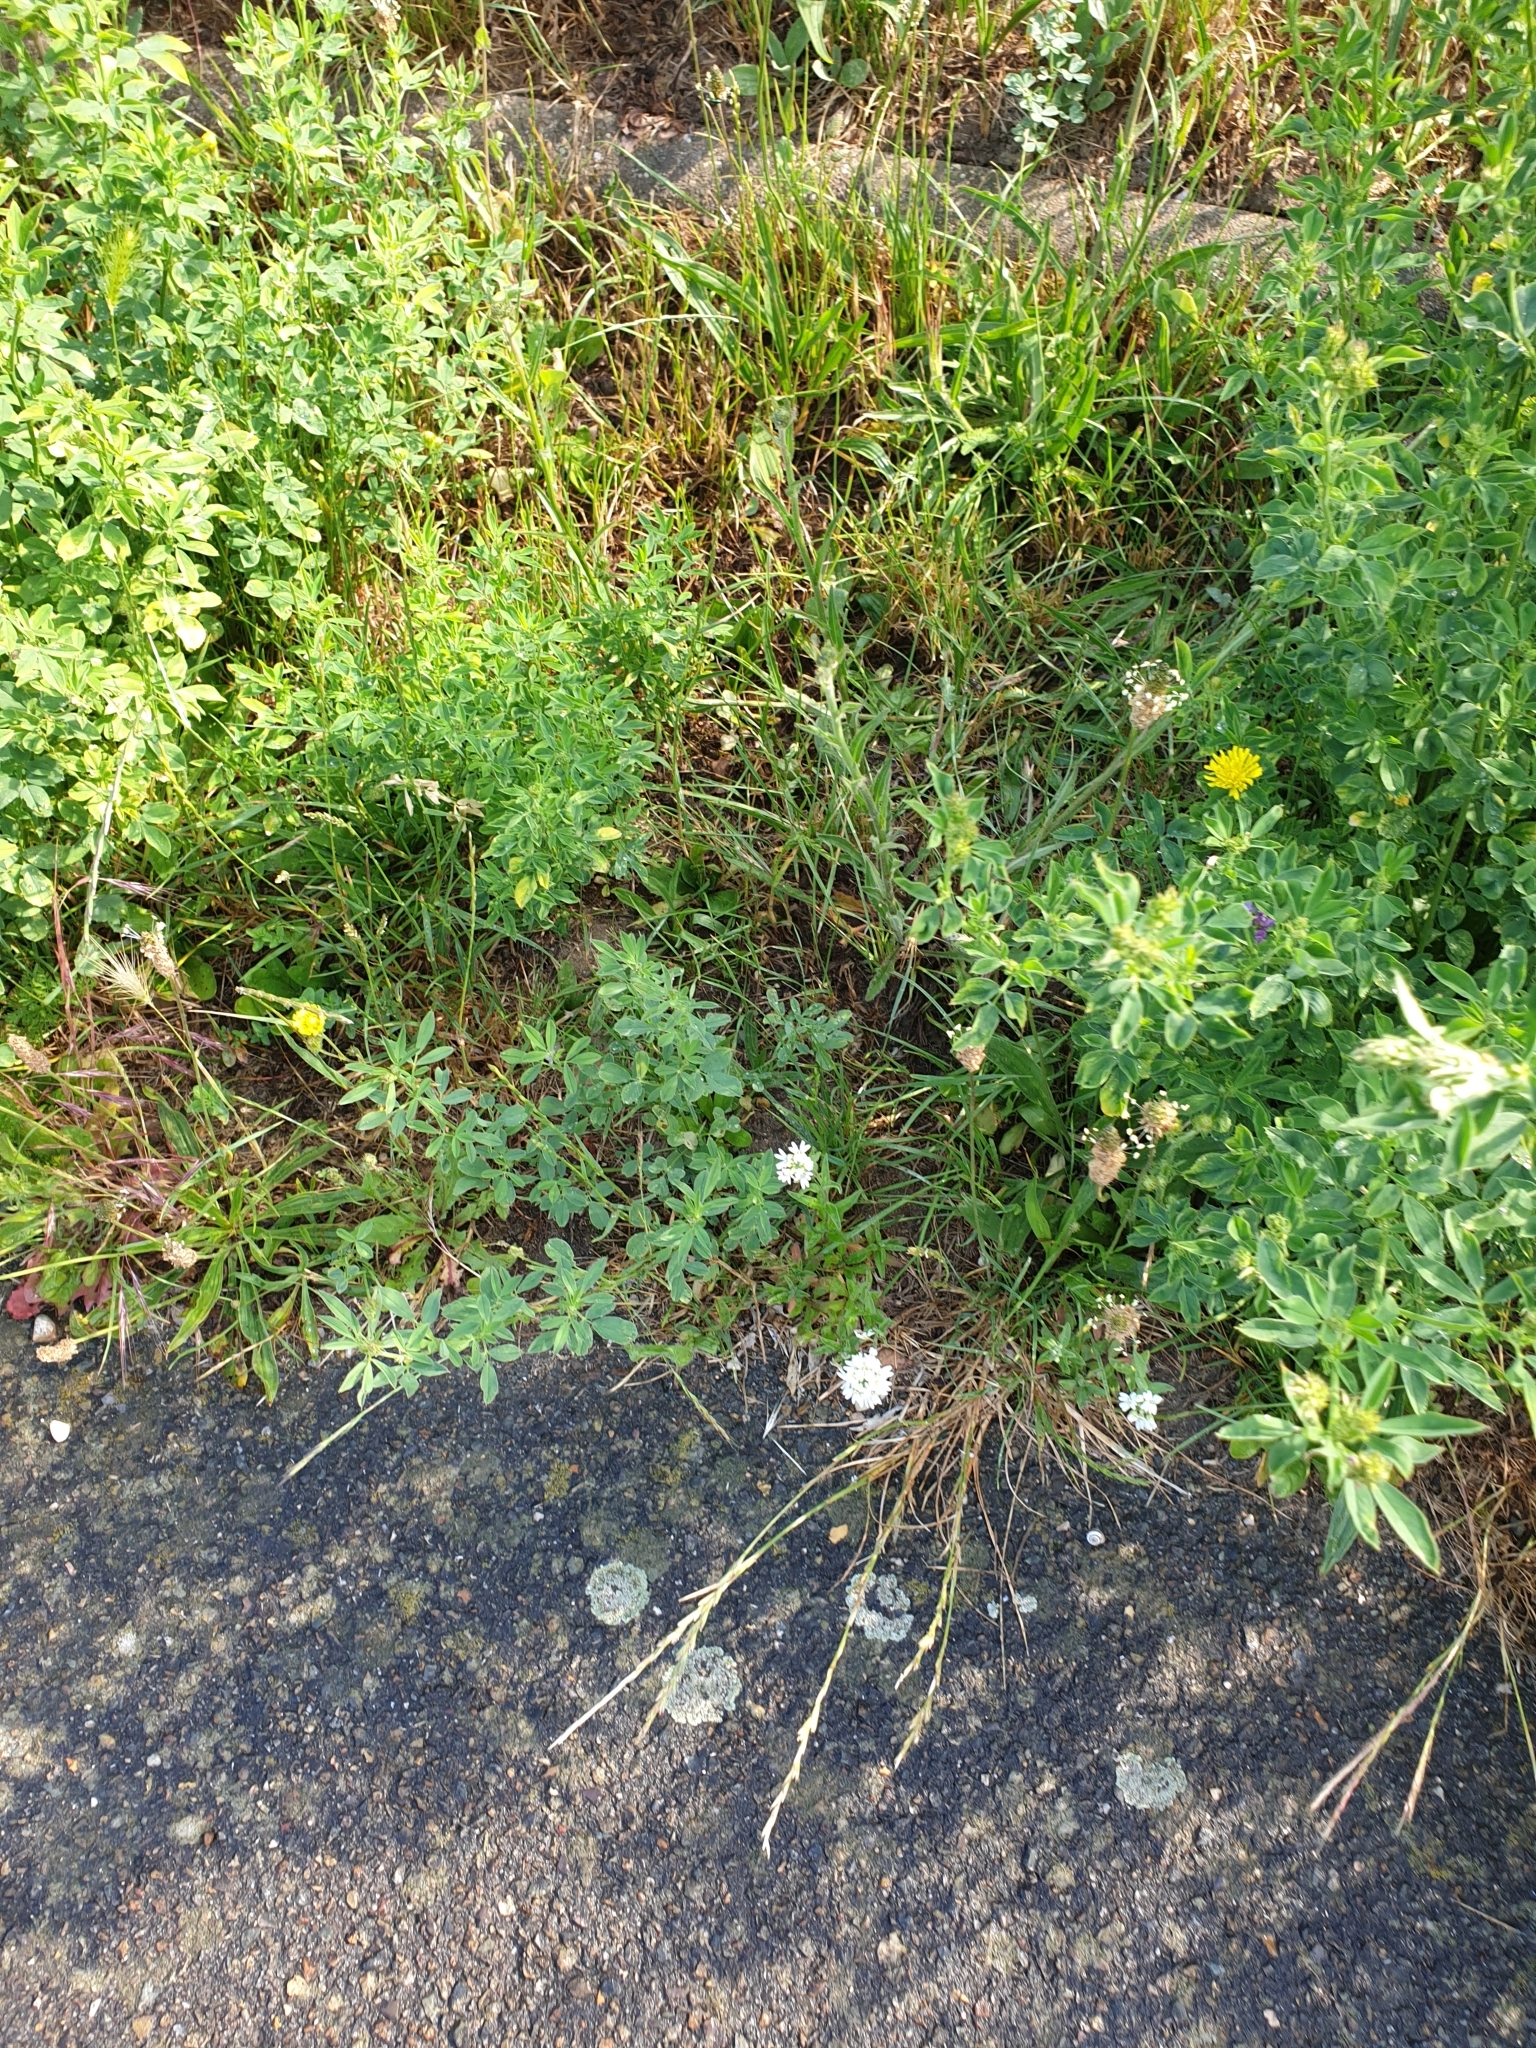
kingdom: Plantae
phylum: Tracheophyta
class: Magnoliopsida
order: Brassicales
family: Brassicaceae
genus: Berteroa
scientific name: Berteroa incana
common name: Hoary alison
